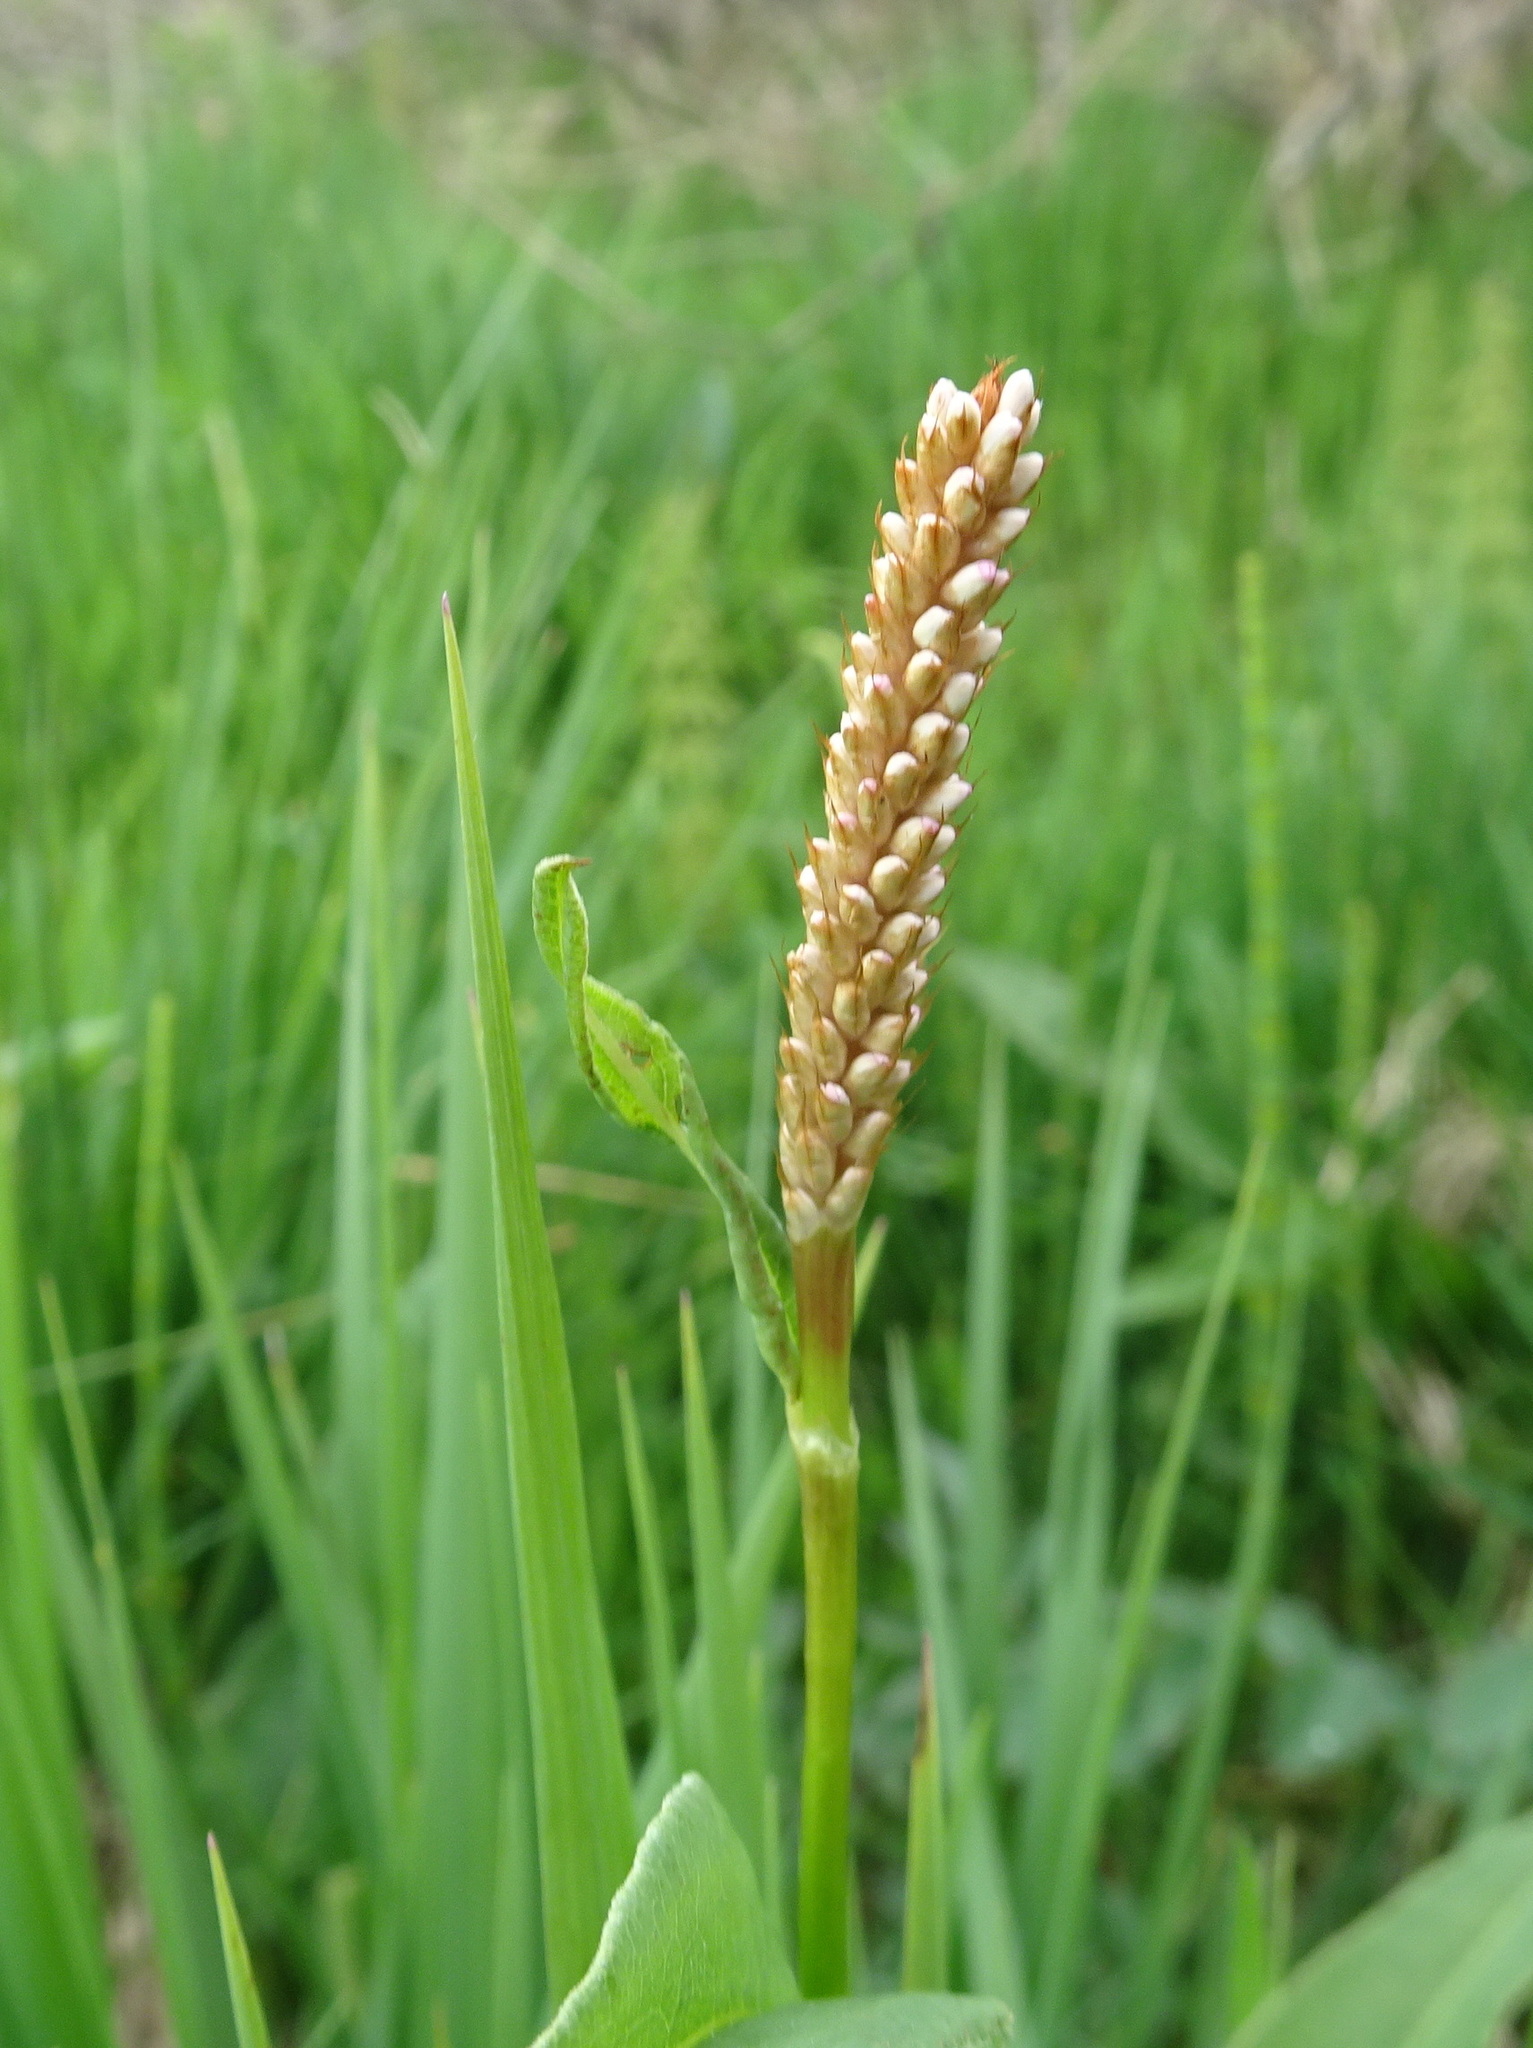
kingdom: Plantae
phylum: Tracheophyta
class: Magnoliopsida
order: Caryophyllales
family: Polygonaceae
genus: Bistorta
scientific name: Bistorta officinalis
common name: Common bistort
